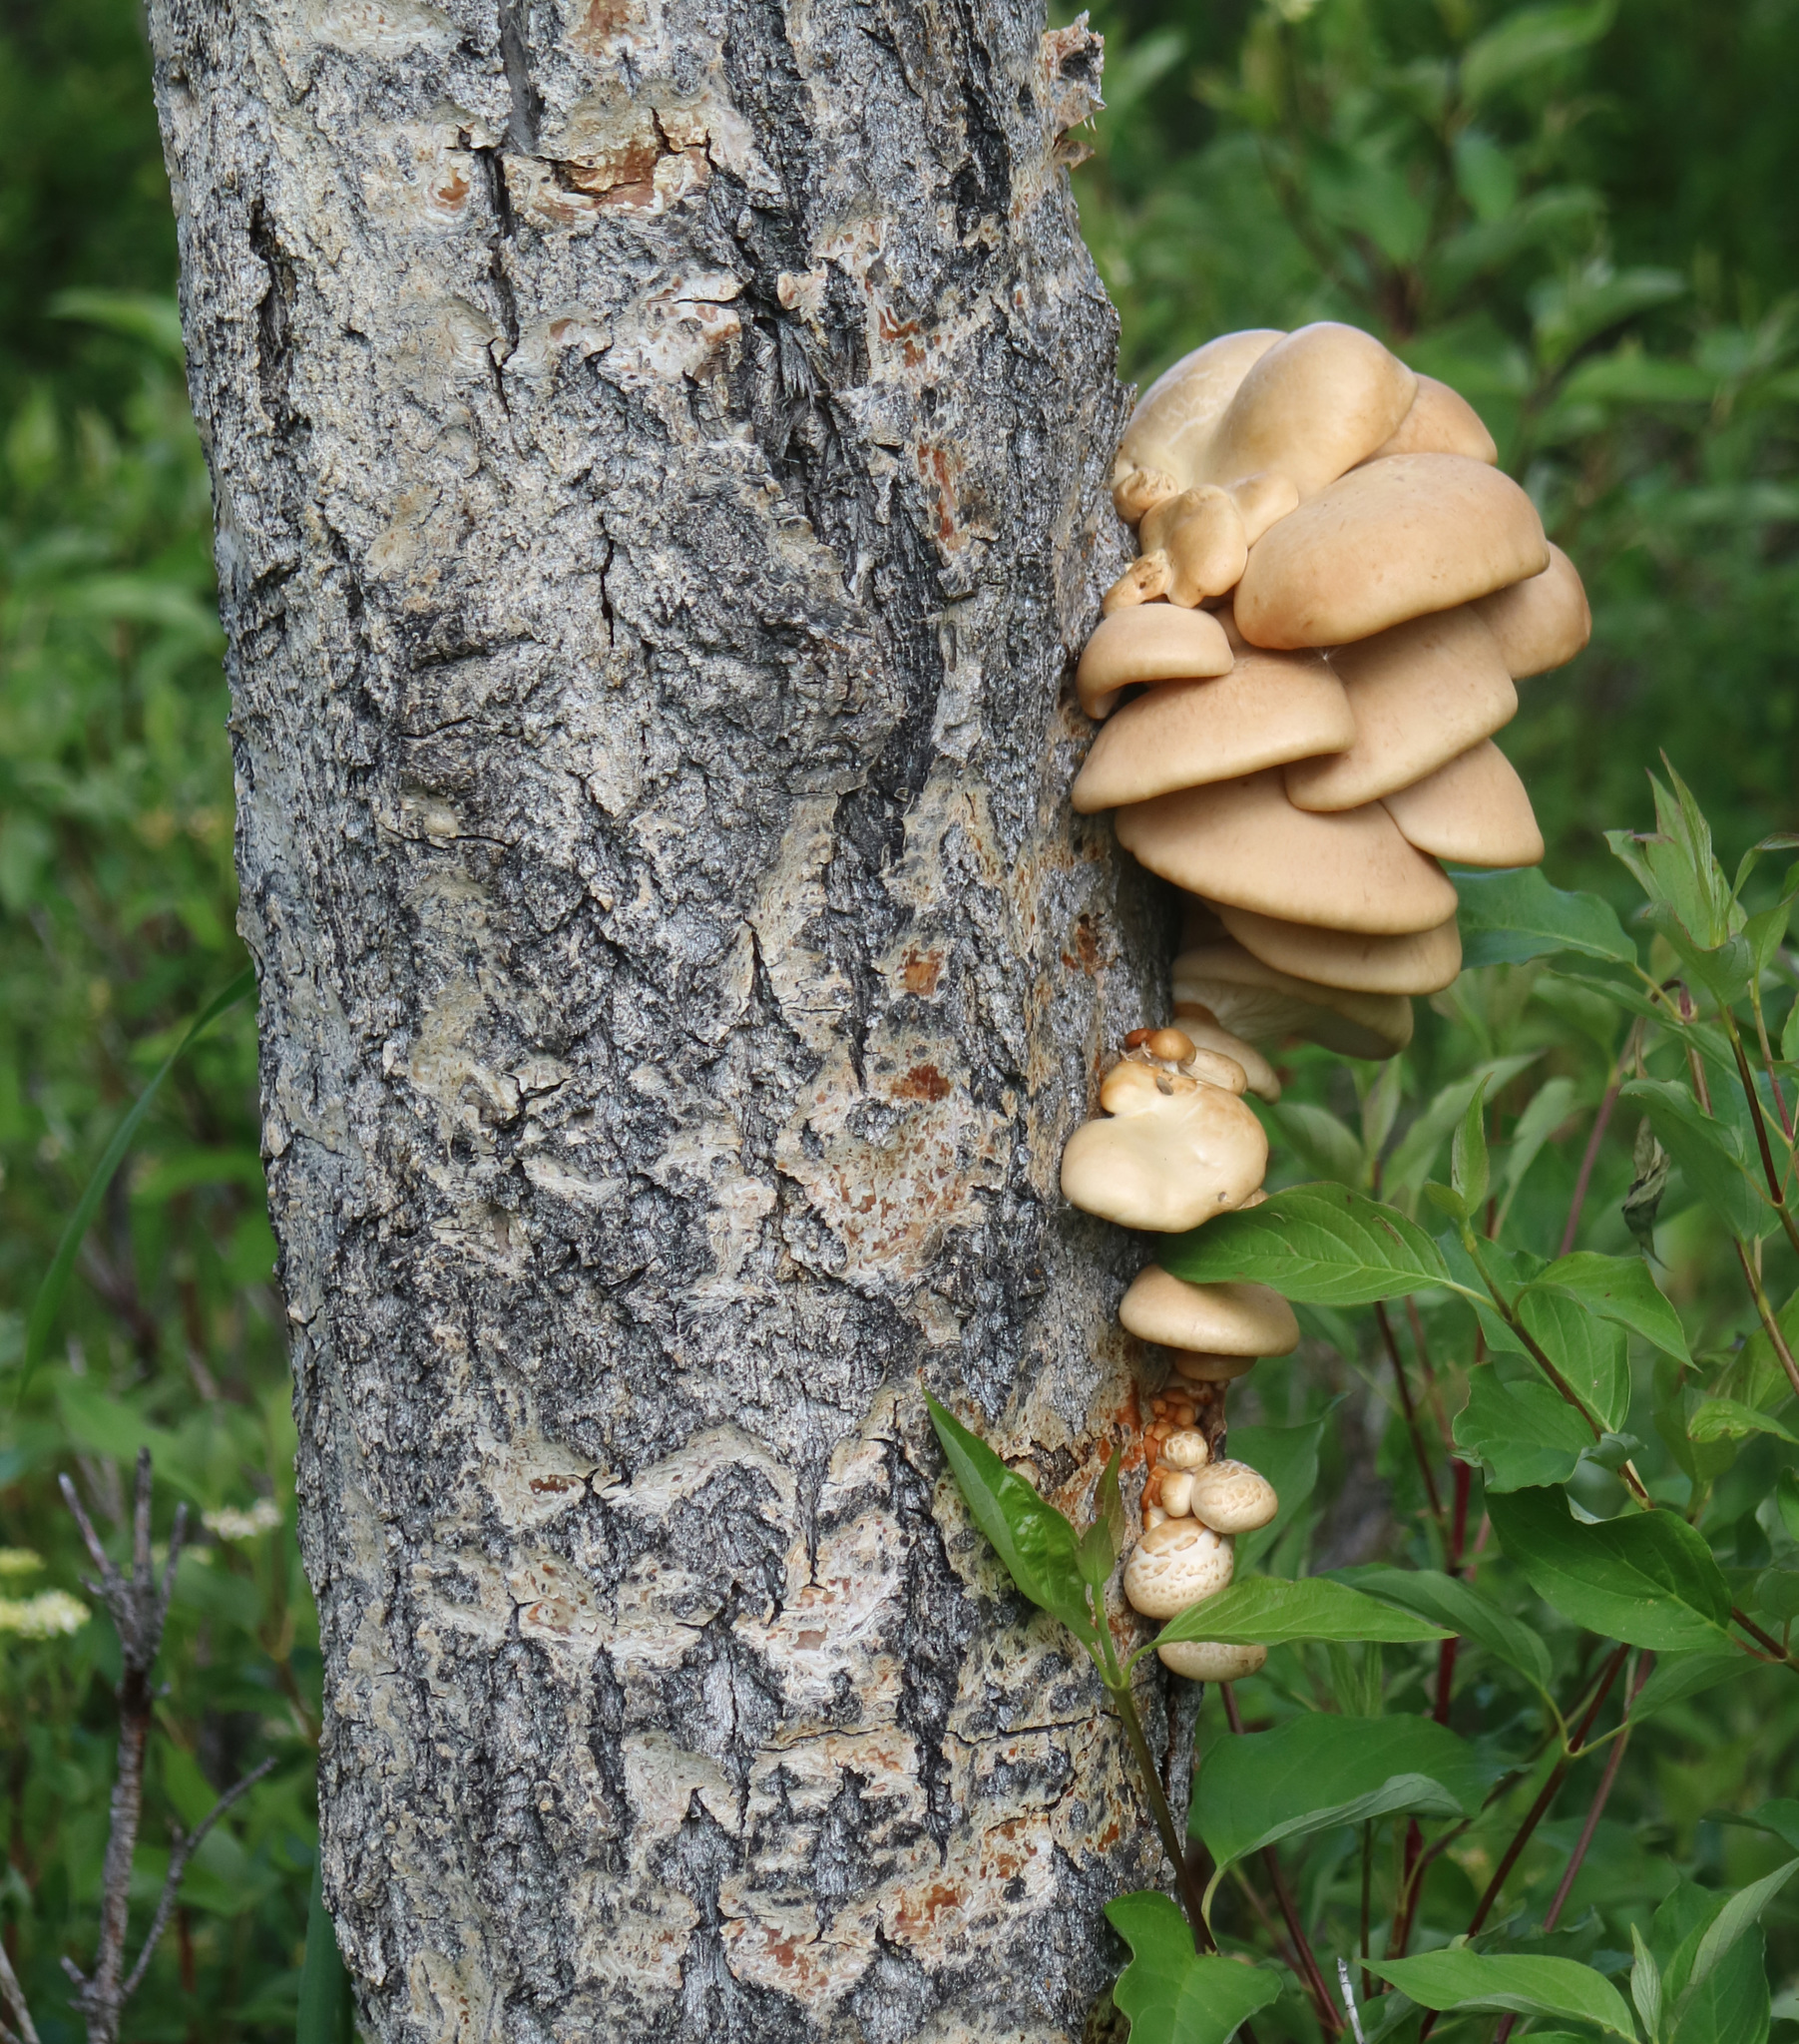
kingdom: Fungi
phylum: Basidiomycota
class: Agaricomycetes
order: Agaricales
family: Pleurotaceae
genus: Pleurotus
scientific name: Pleurotus populinus
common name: Aspen oyster mushroom
